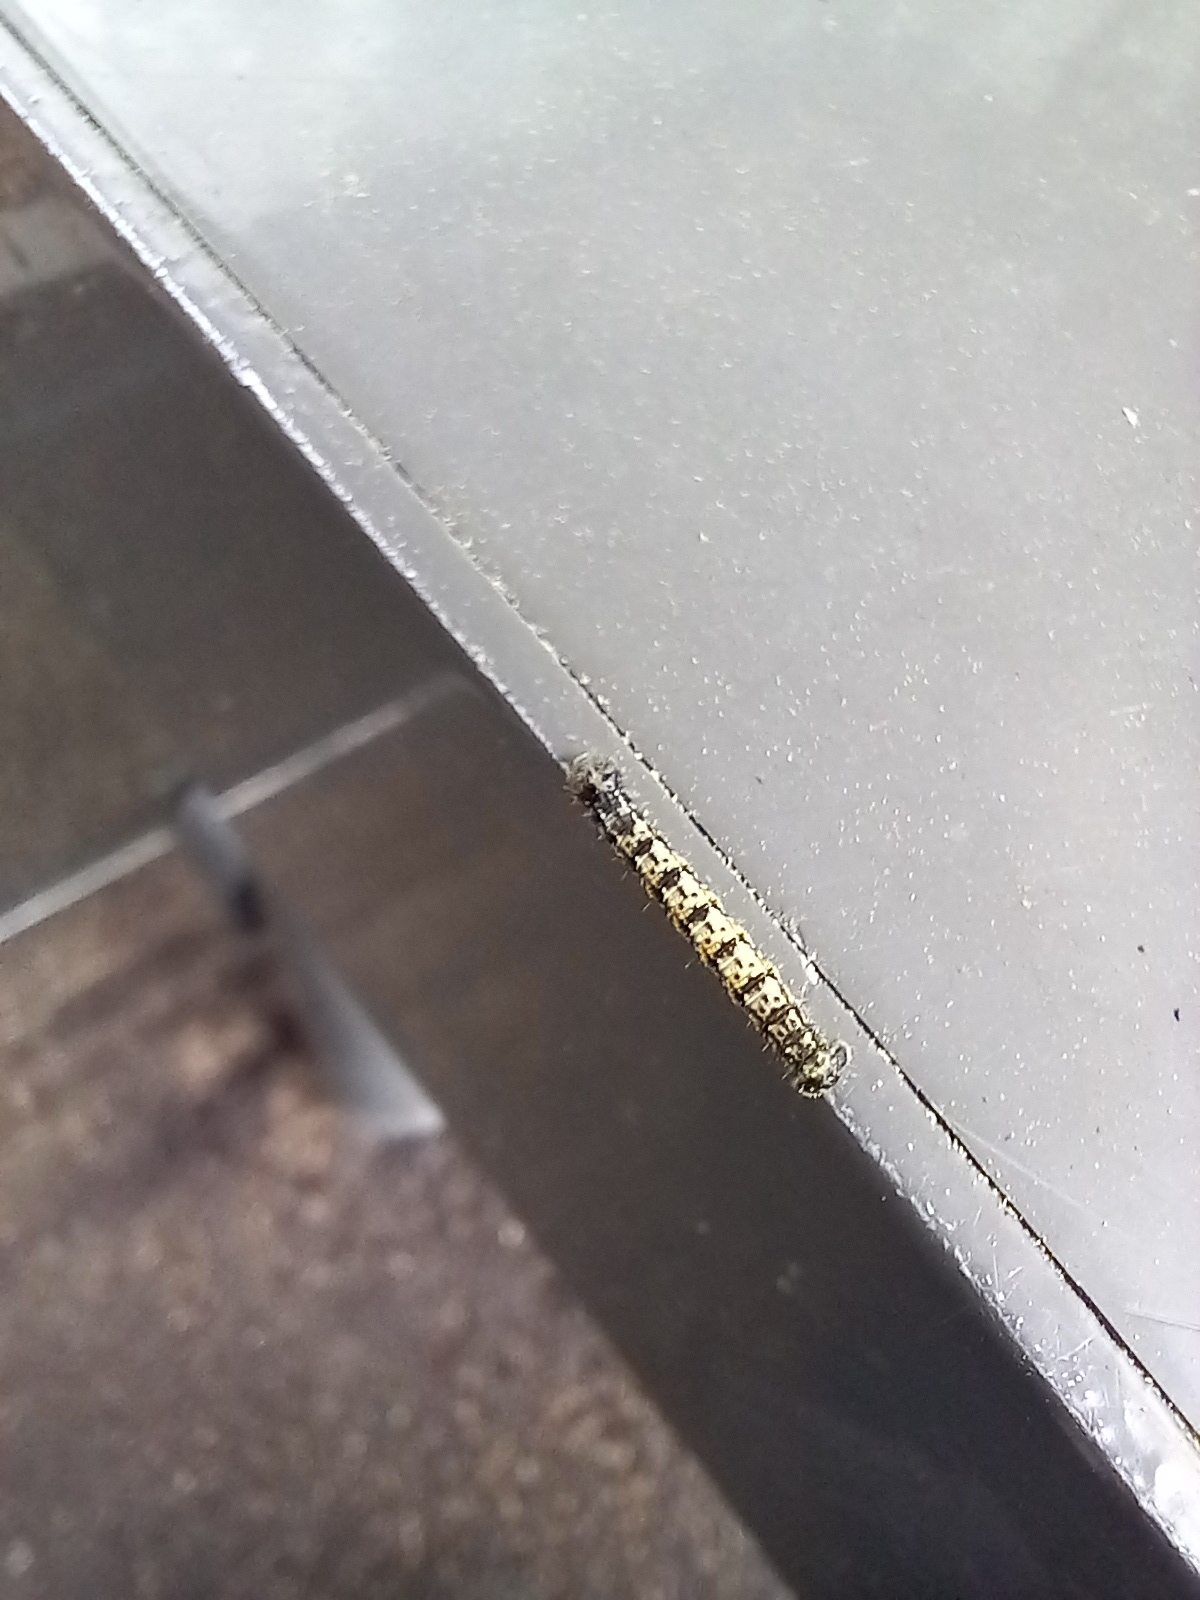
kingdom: Animalia
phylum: Arthropoda
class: Insecta
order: Lepidoptera
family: Geometridae
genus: Agriopis
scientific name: Agriopis leucophaearia
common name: Spring usher
